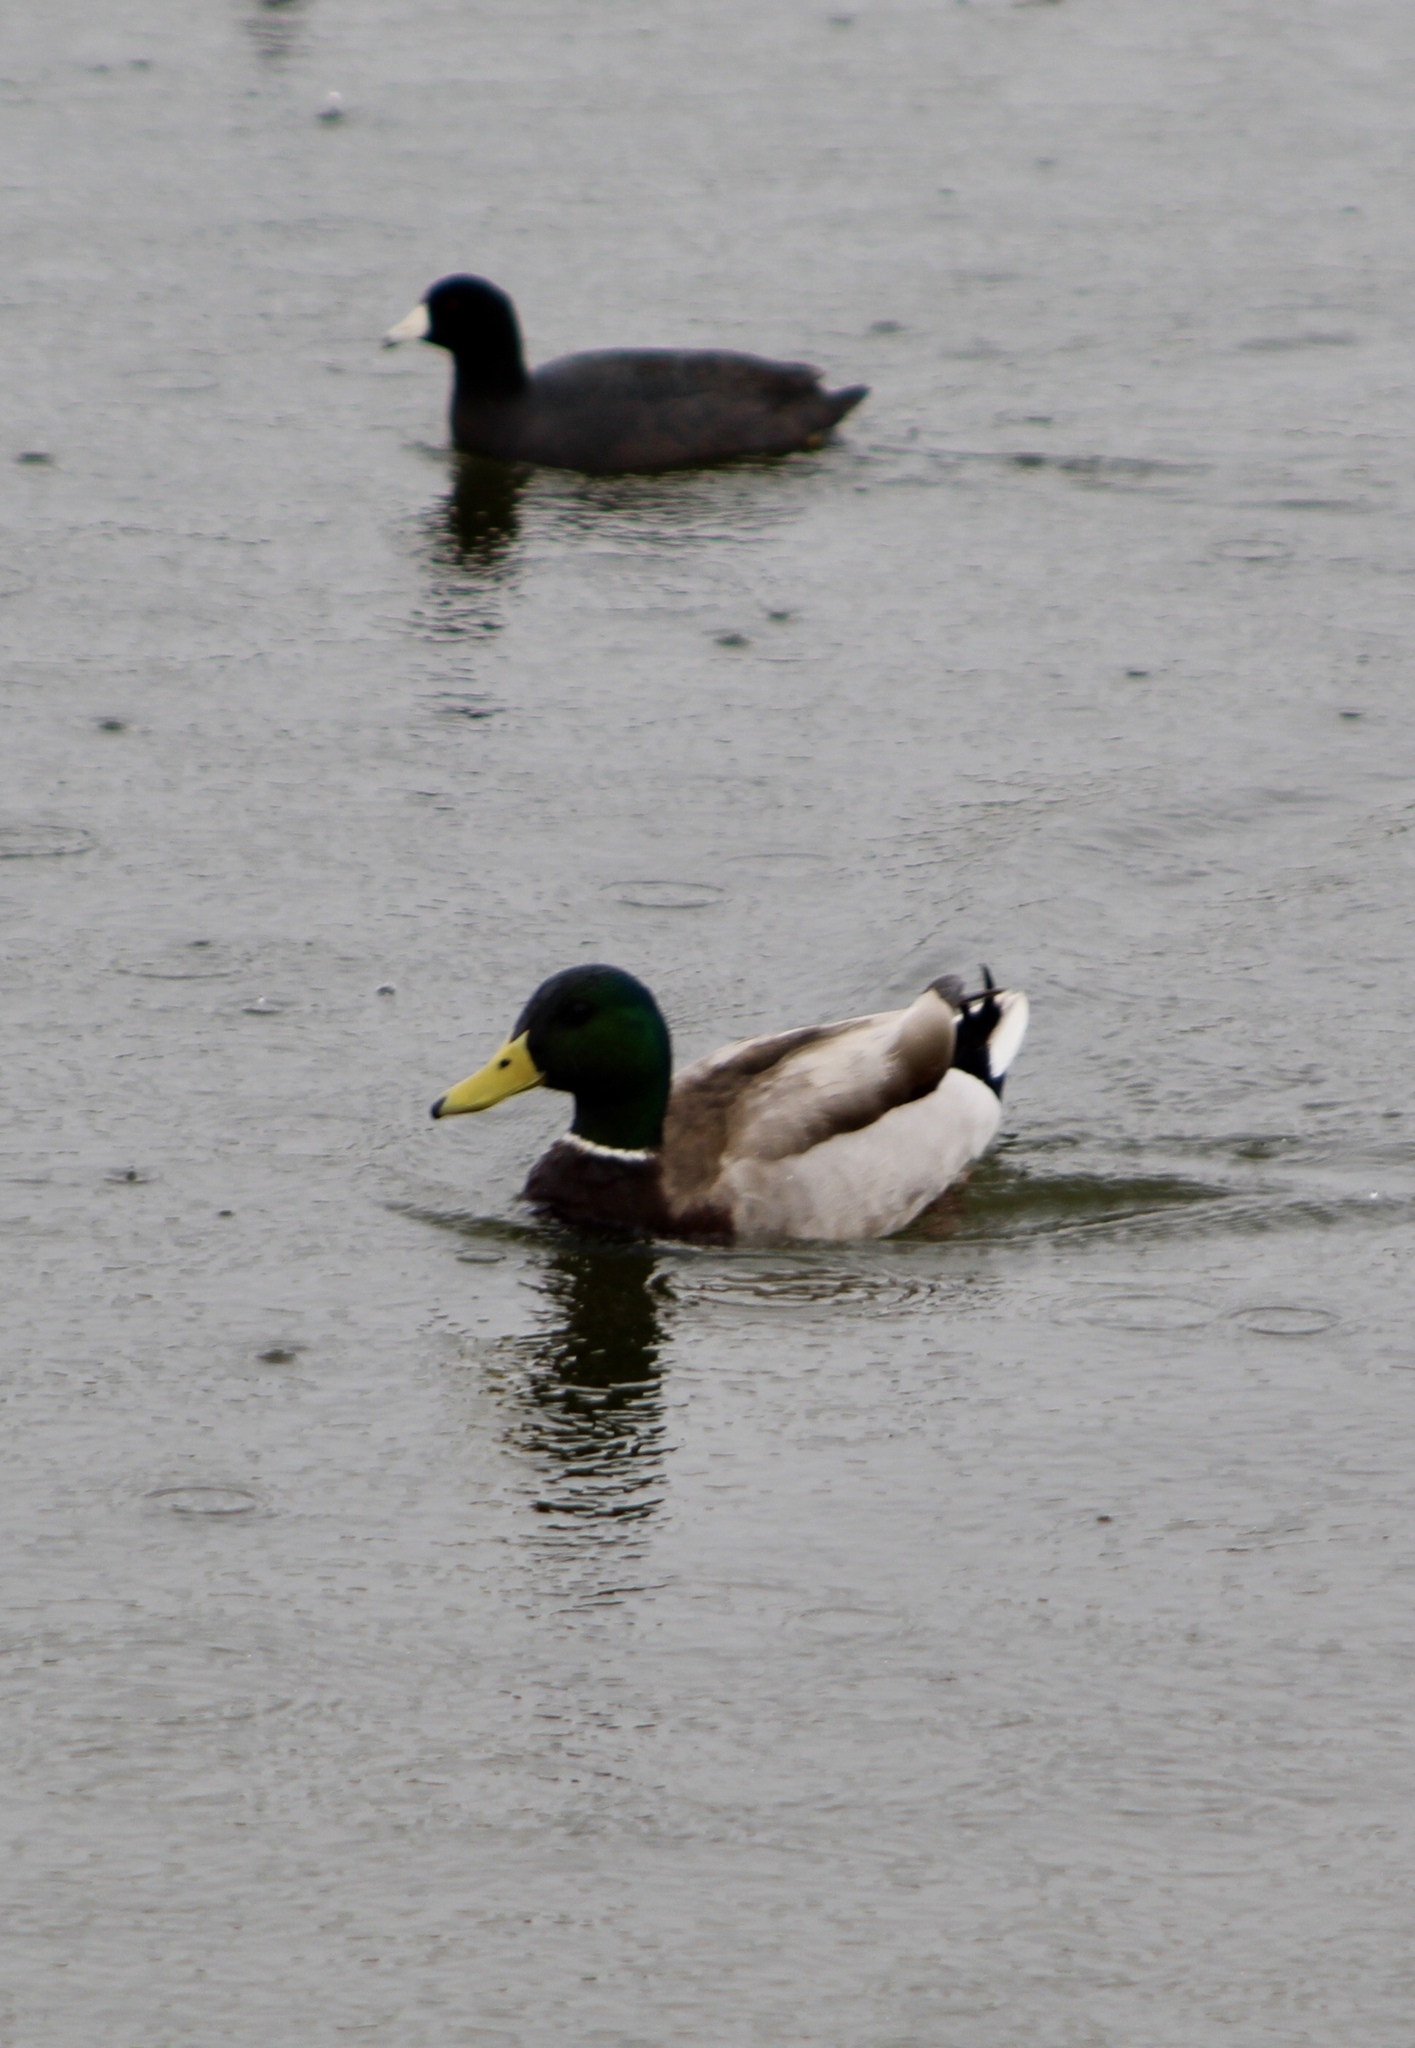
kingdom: Animalia
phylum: Chordata
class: Aves
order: Anseriformes
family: Anatidae
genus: Anas
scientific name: Anas platyrhynchos
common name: Mallard
